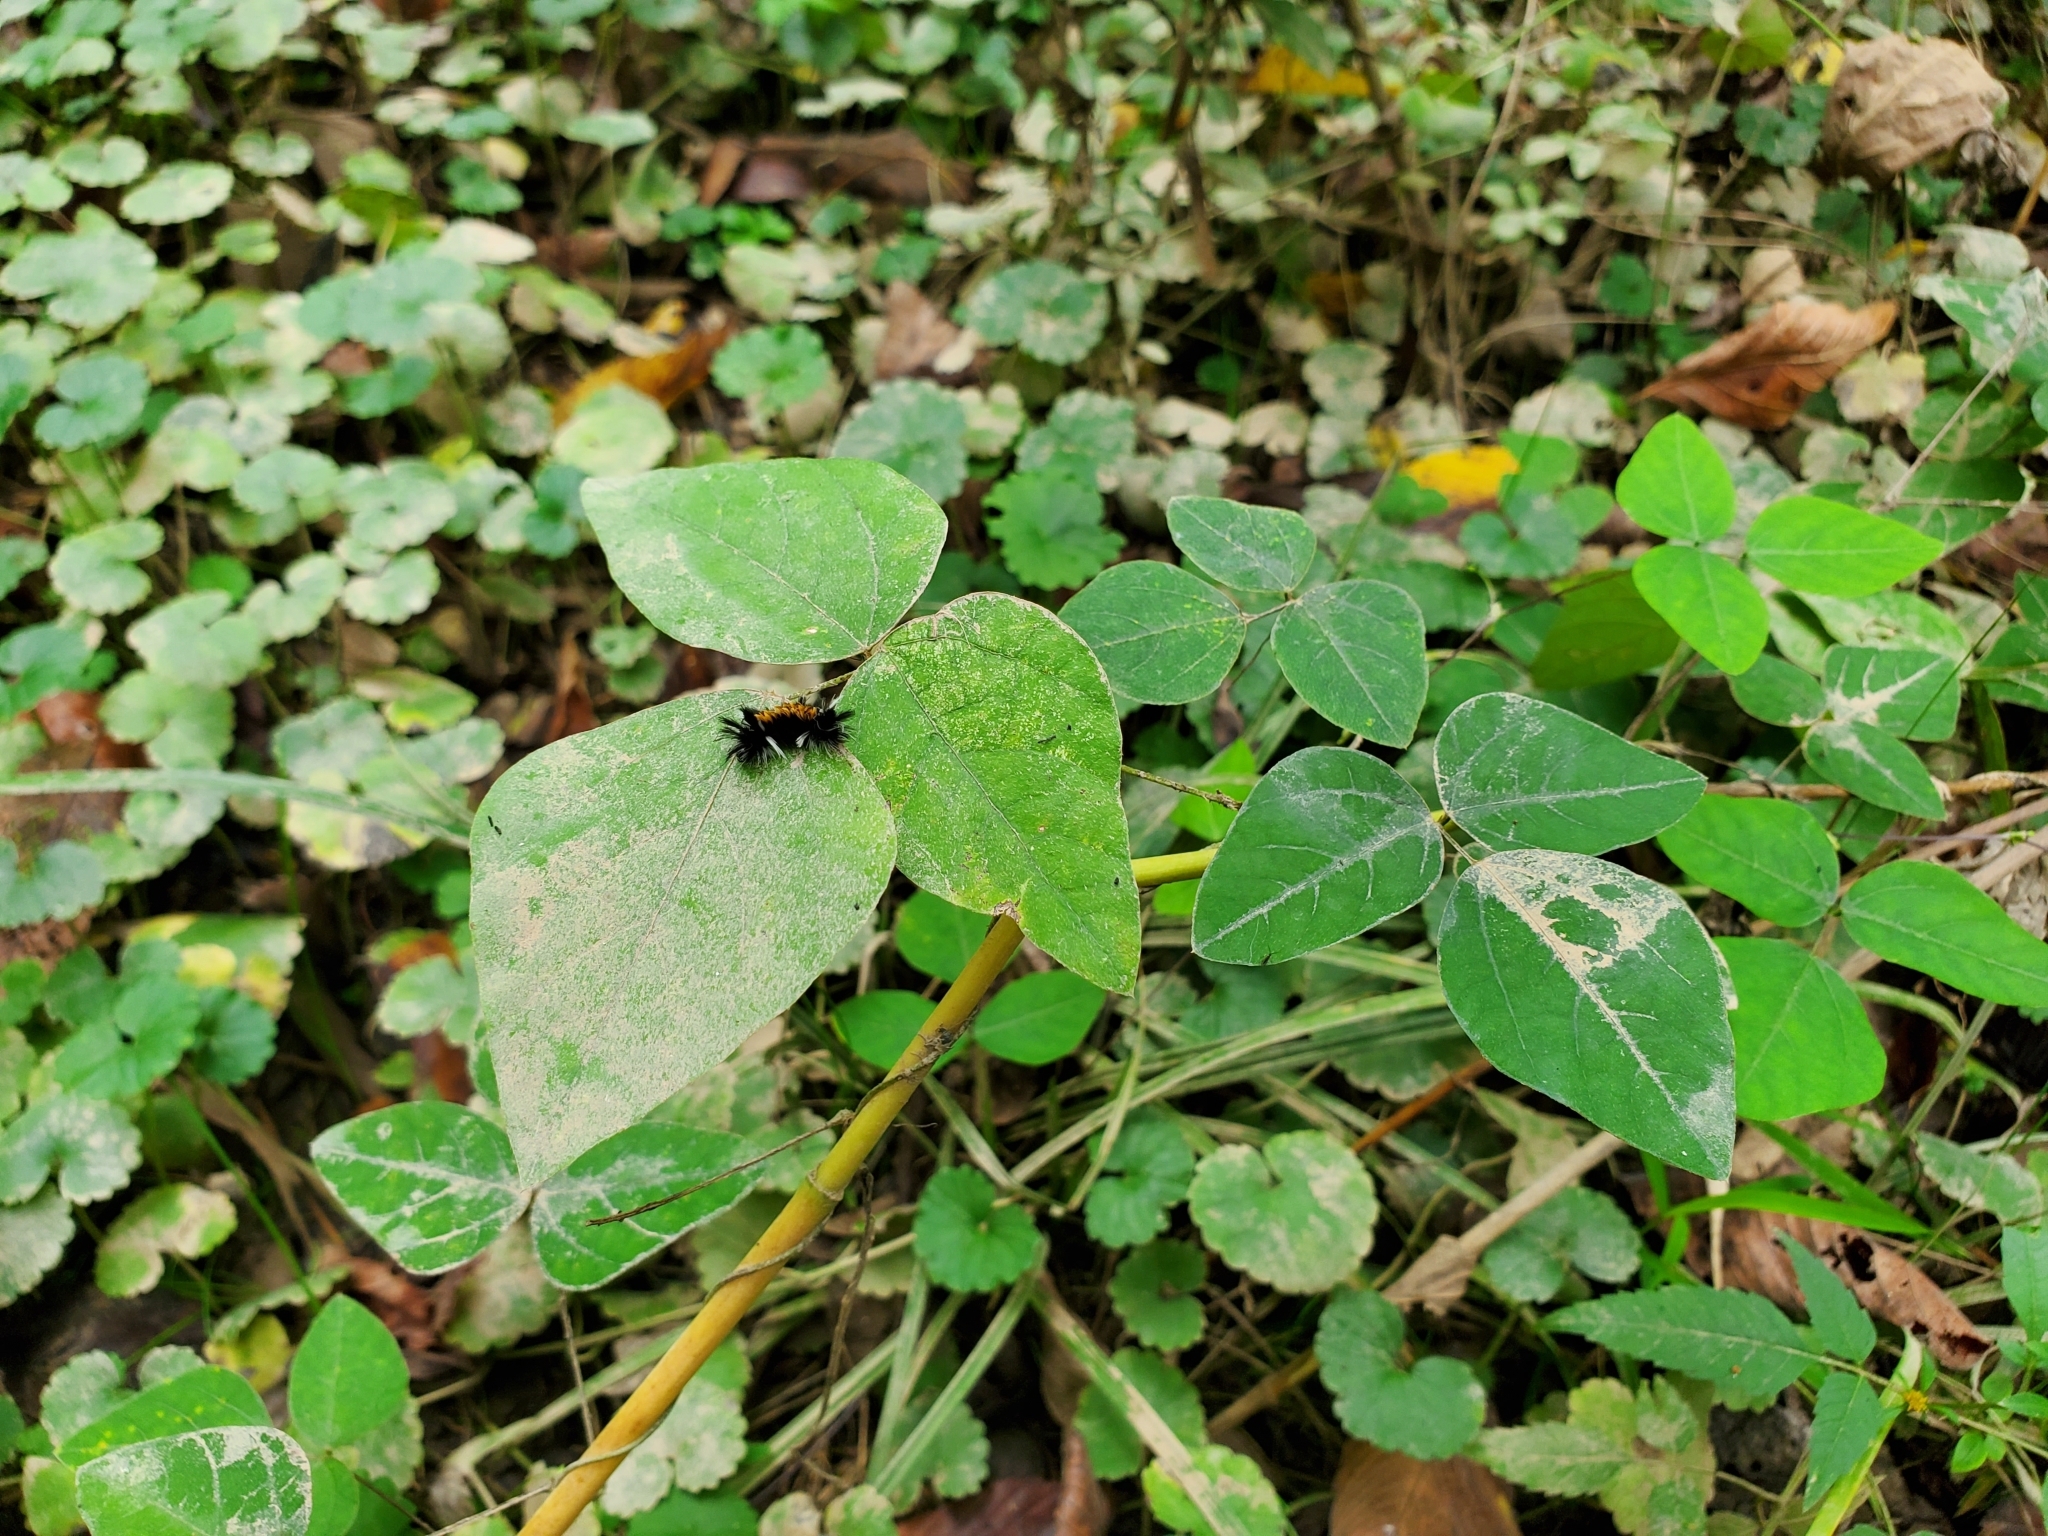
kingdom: Animalia
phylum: Arthropoda
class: Insecta
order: Lepidoptera
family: Erebidae
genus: Euchaetes
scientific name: Euchaetes egle
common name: Milkweed tussock moth
